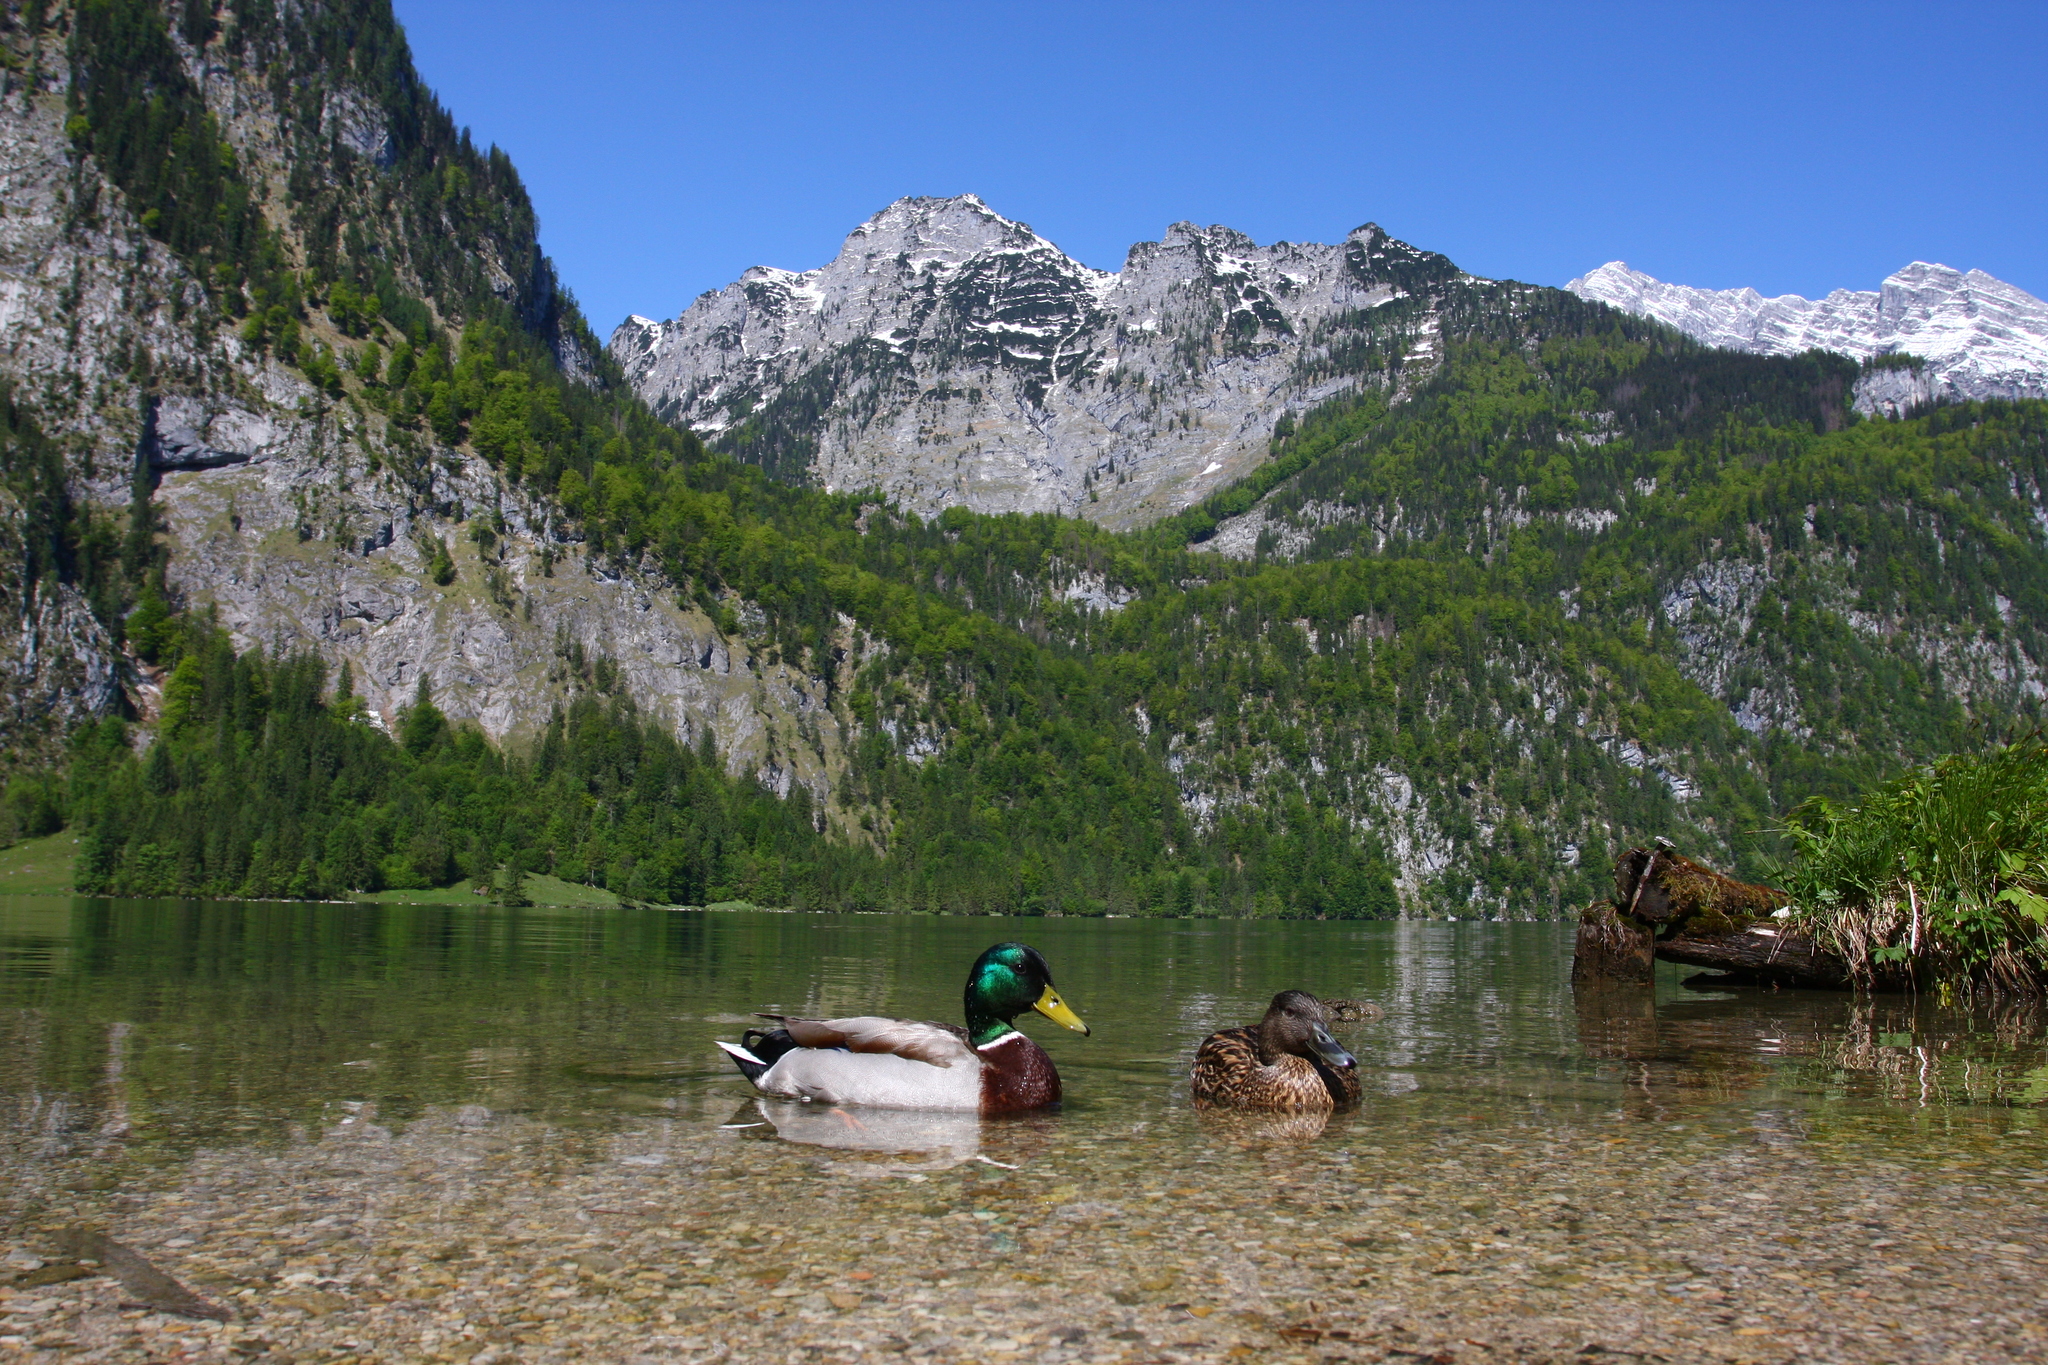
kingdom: Animalia
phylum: Chordata
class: Aves
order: Anseriformes
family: Anatidae
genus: Anas
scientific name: Anas platyrhynchos
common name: Mallard
